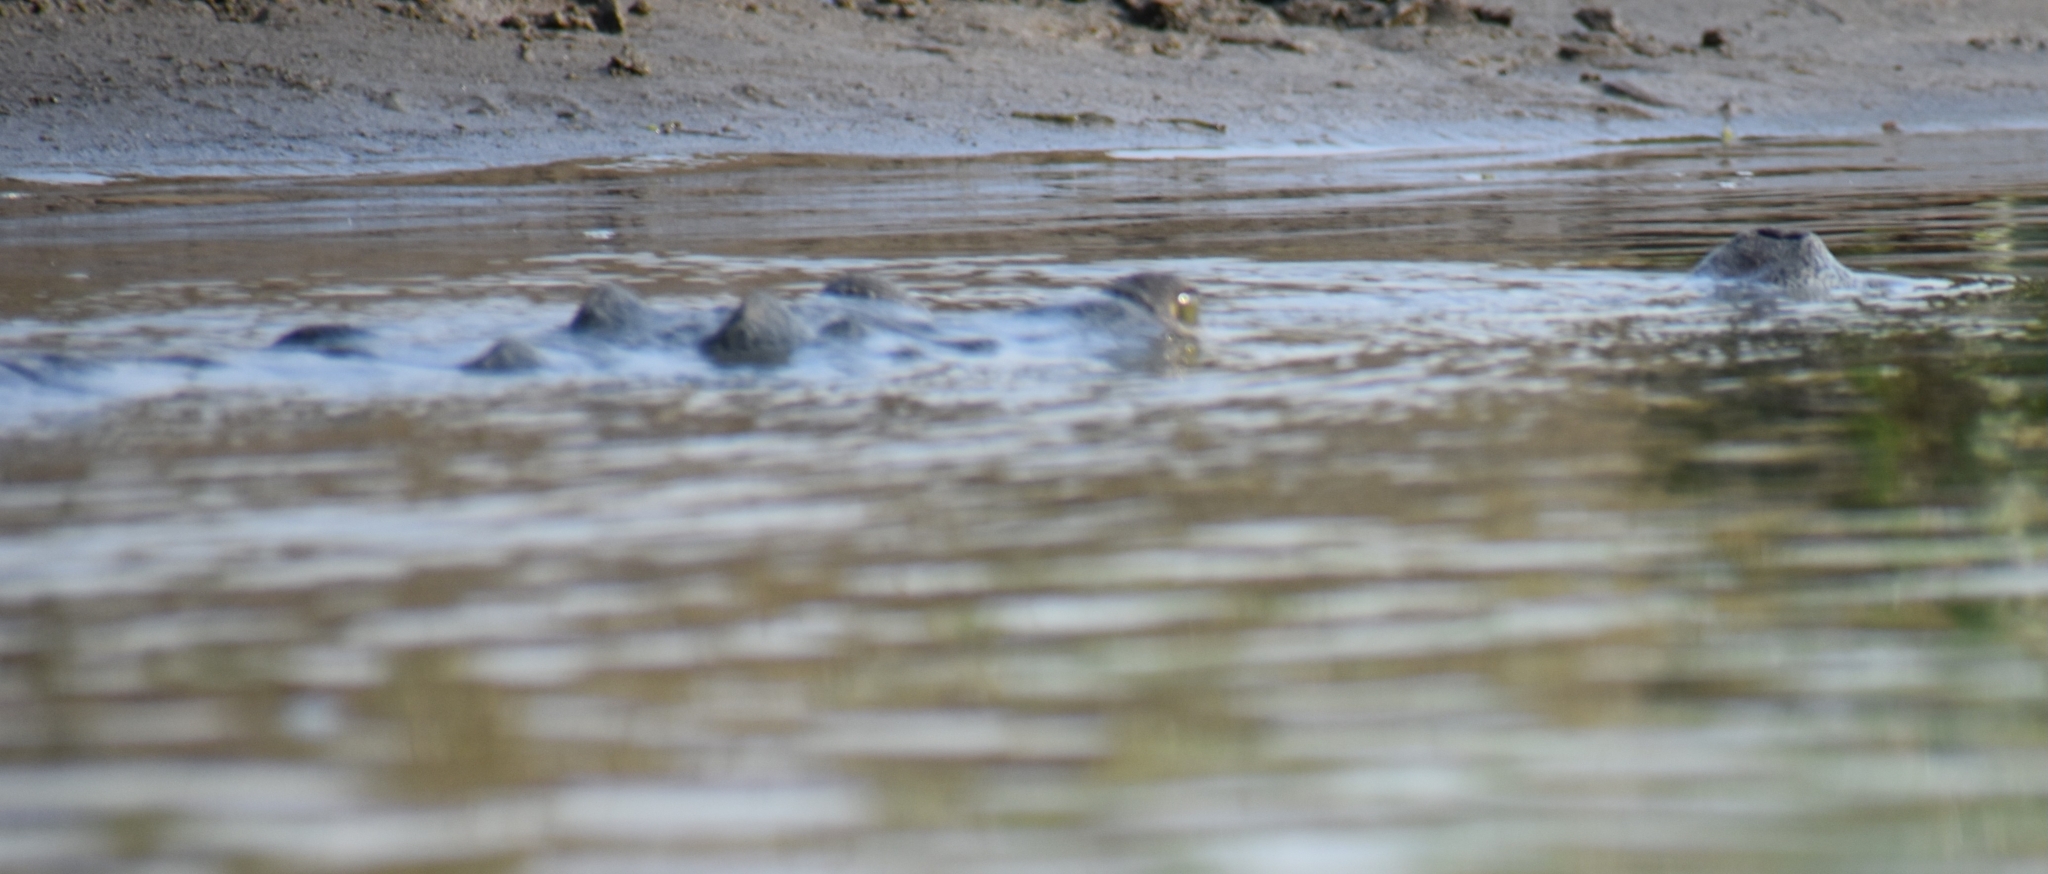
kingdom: Animalia
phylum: Chordata
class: Crocodylia
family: Gavialidae
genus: Gavialis
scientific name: Gavialis gangeticus
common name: Gharial
